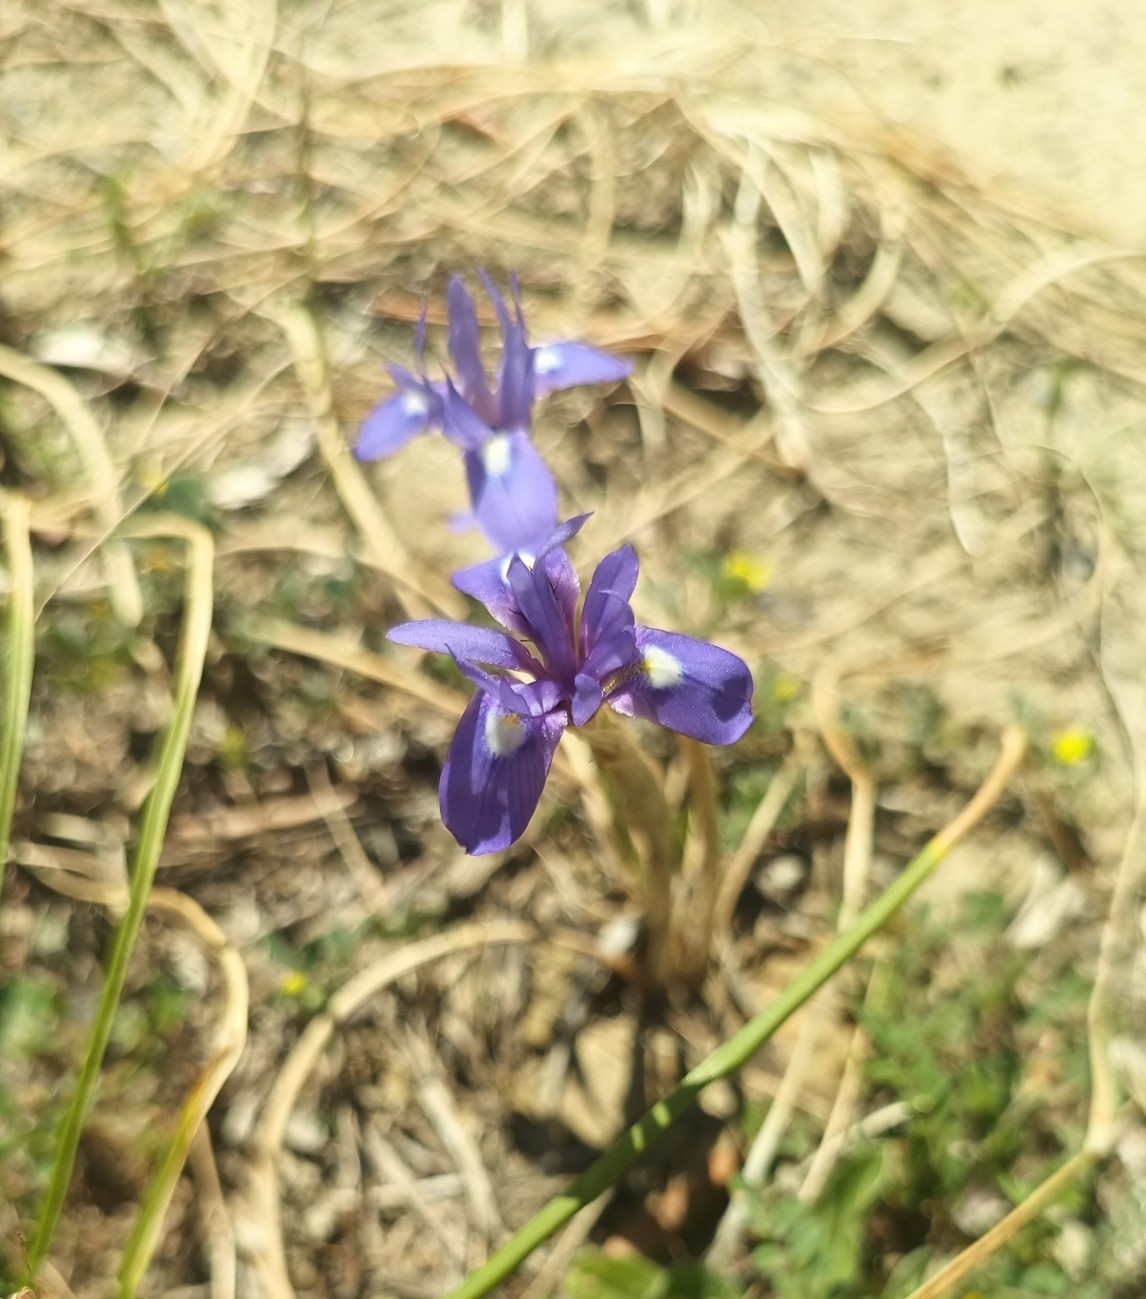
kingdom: Plantae
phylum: Tracheophyta
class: Liliopsida
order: Asparagales
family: Iridaceae
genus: Moraea
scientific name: Moraea sisyrinchium
